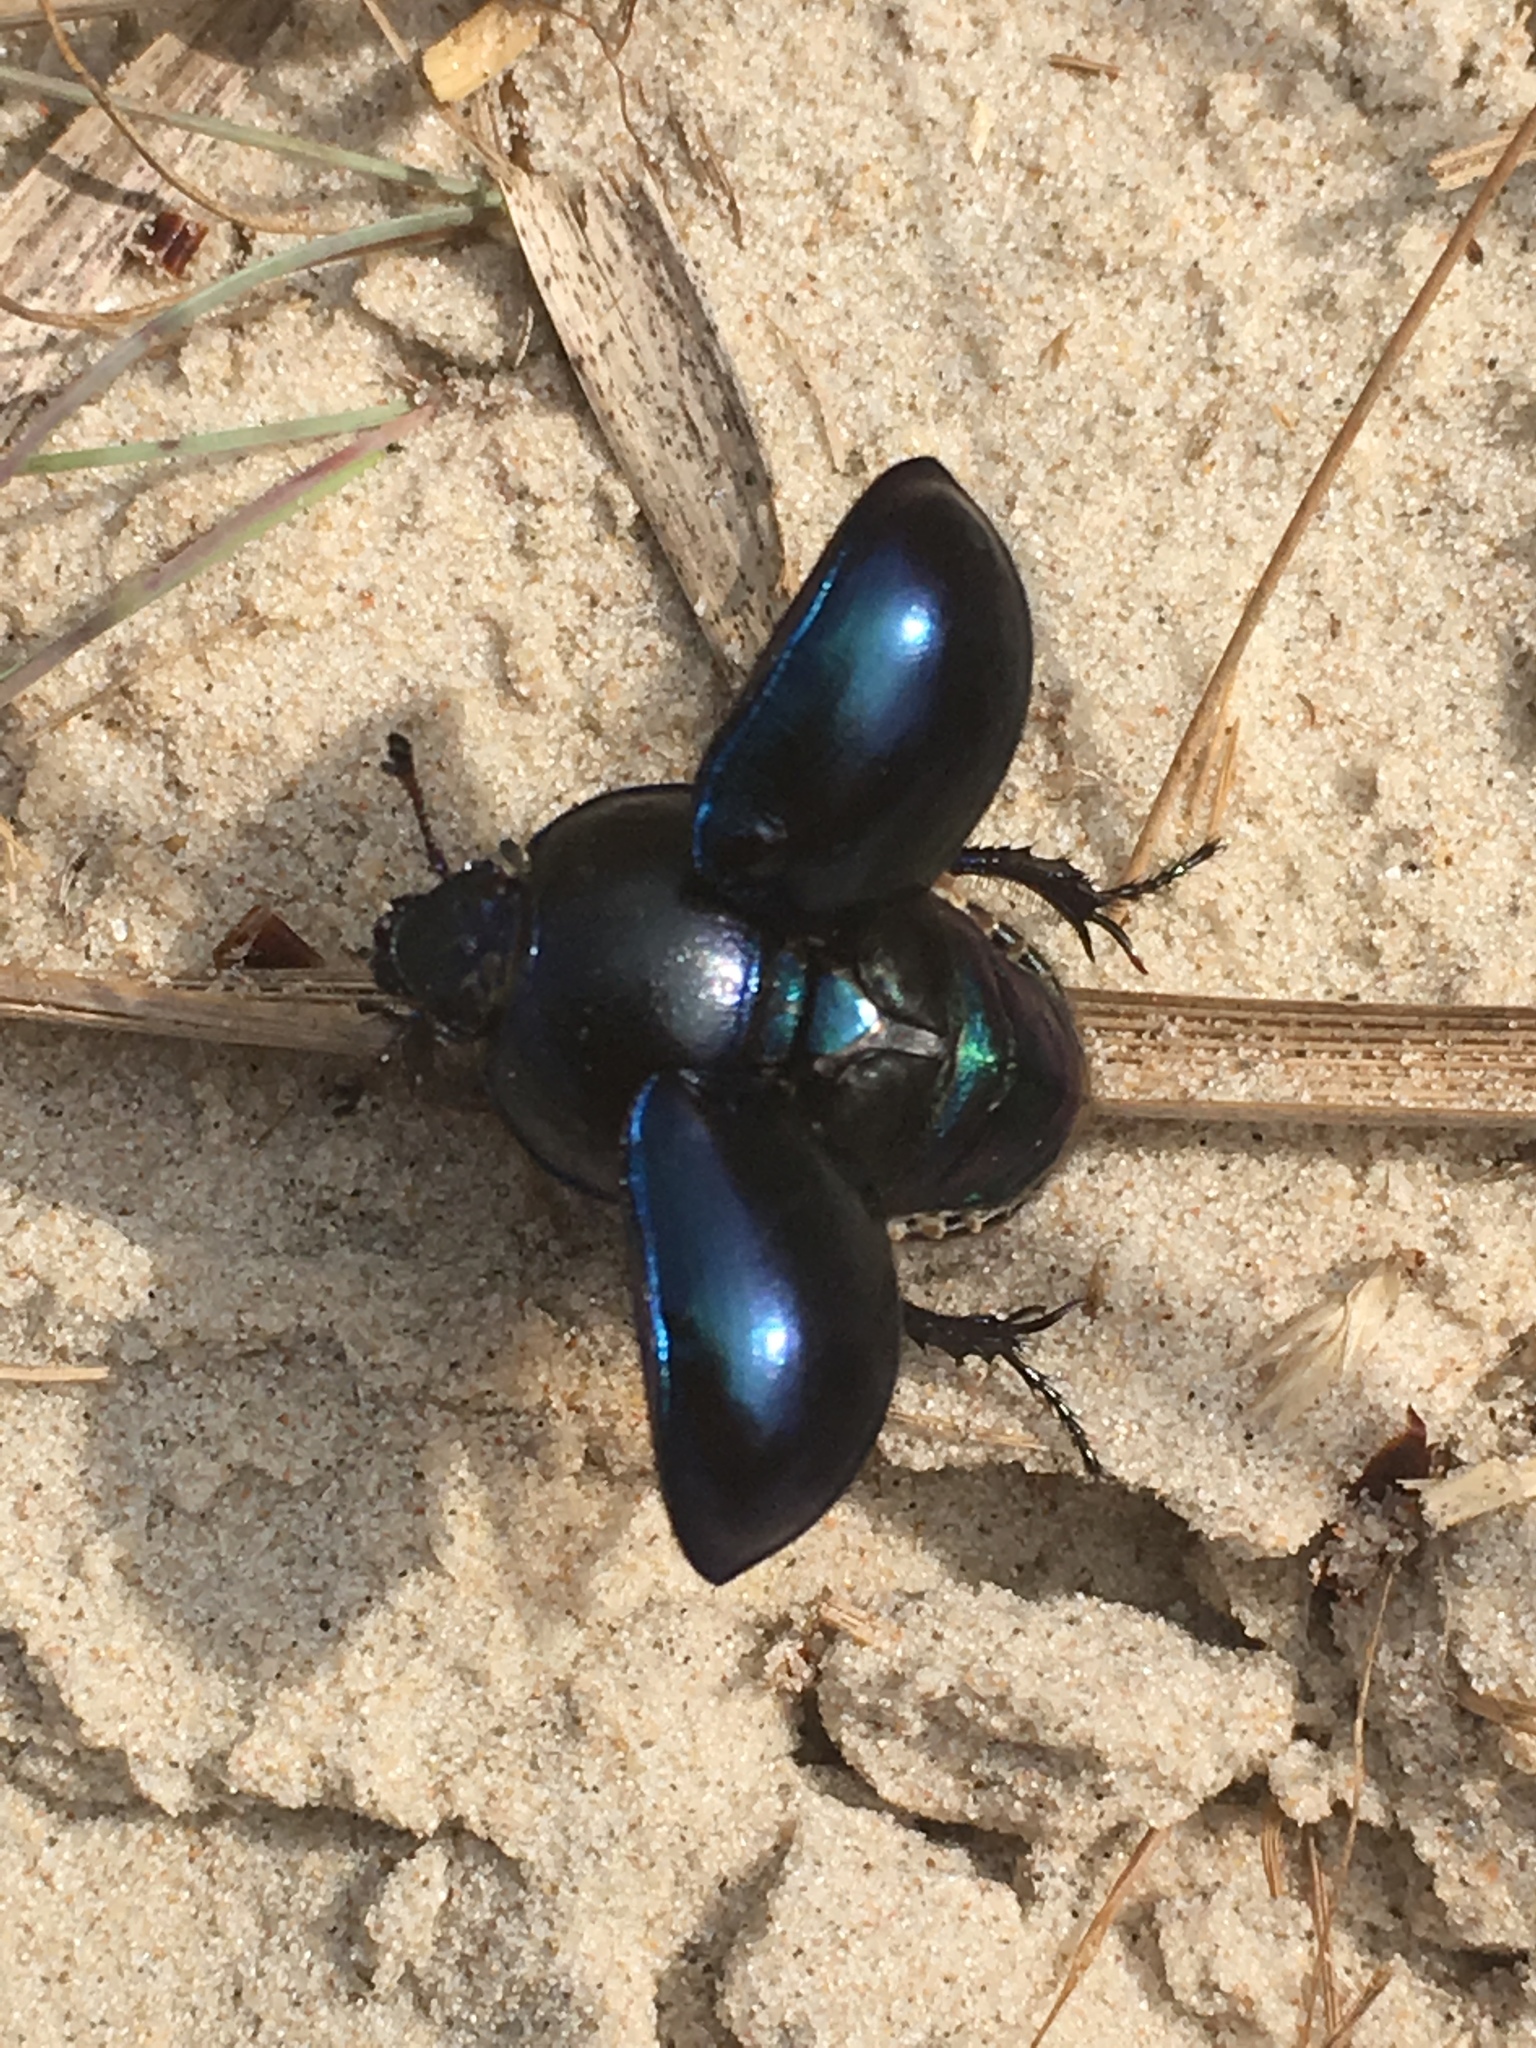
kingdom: Animalia
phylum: Arthropoda
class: Insecta
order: Coleoptera
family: Geotrupidae
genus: Trypocopris
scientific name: Trypocopris vernalis
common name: Spring dumbledor
